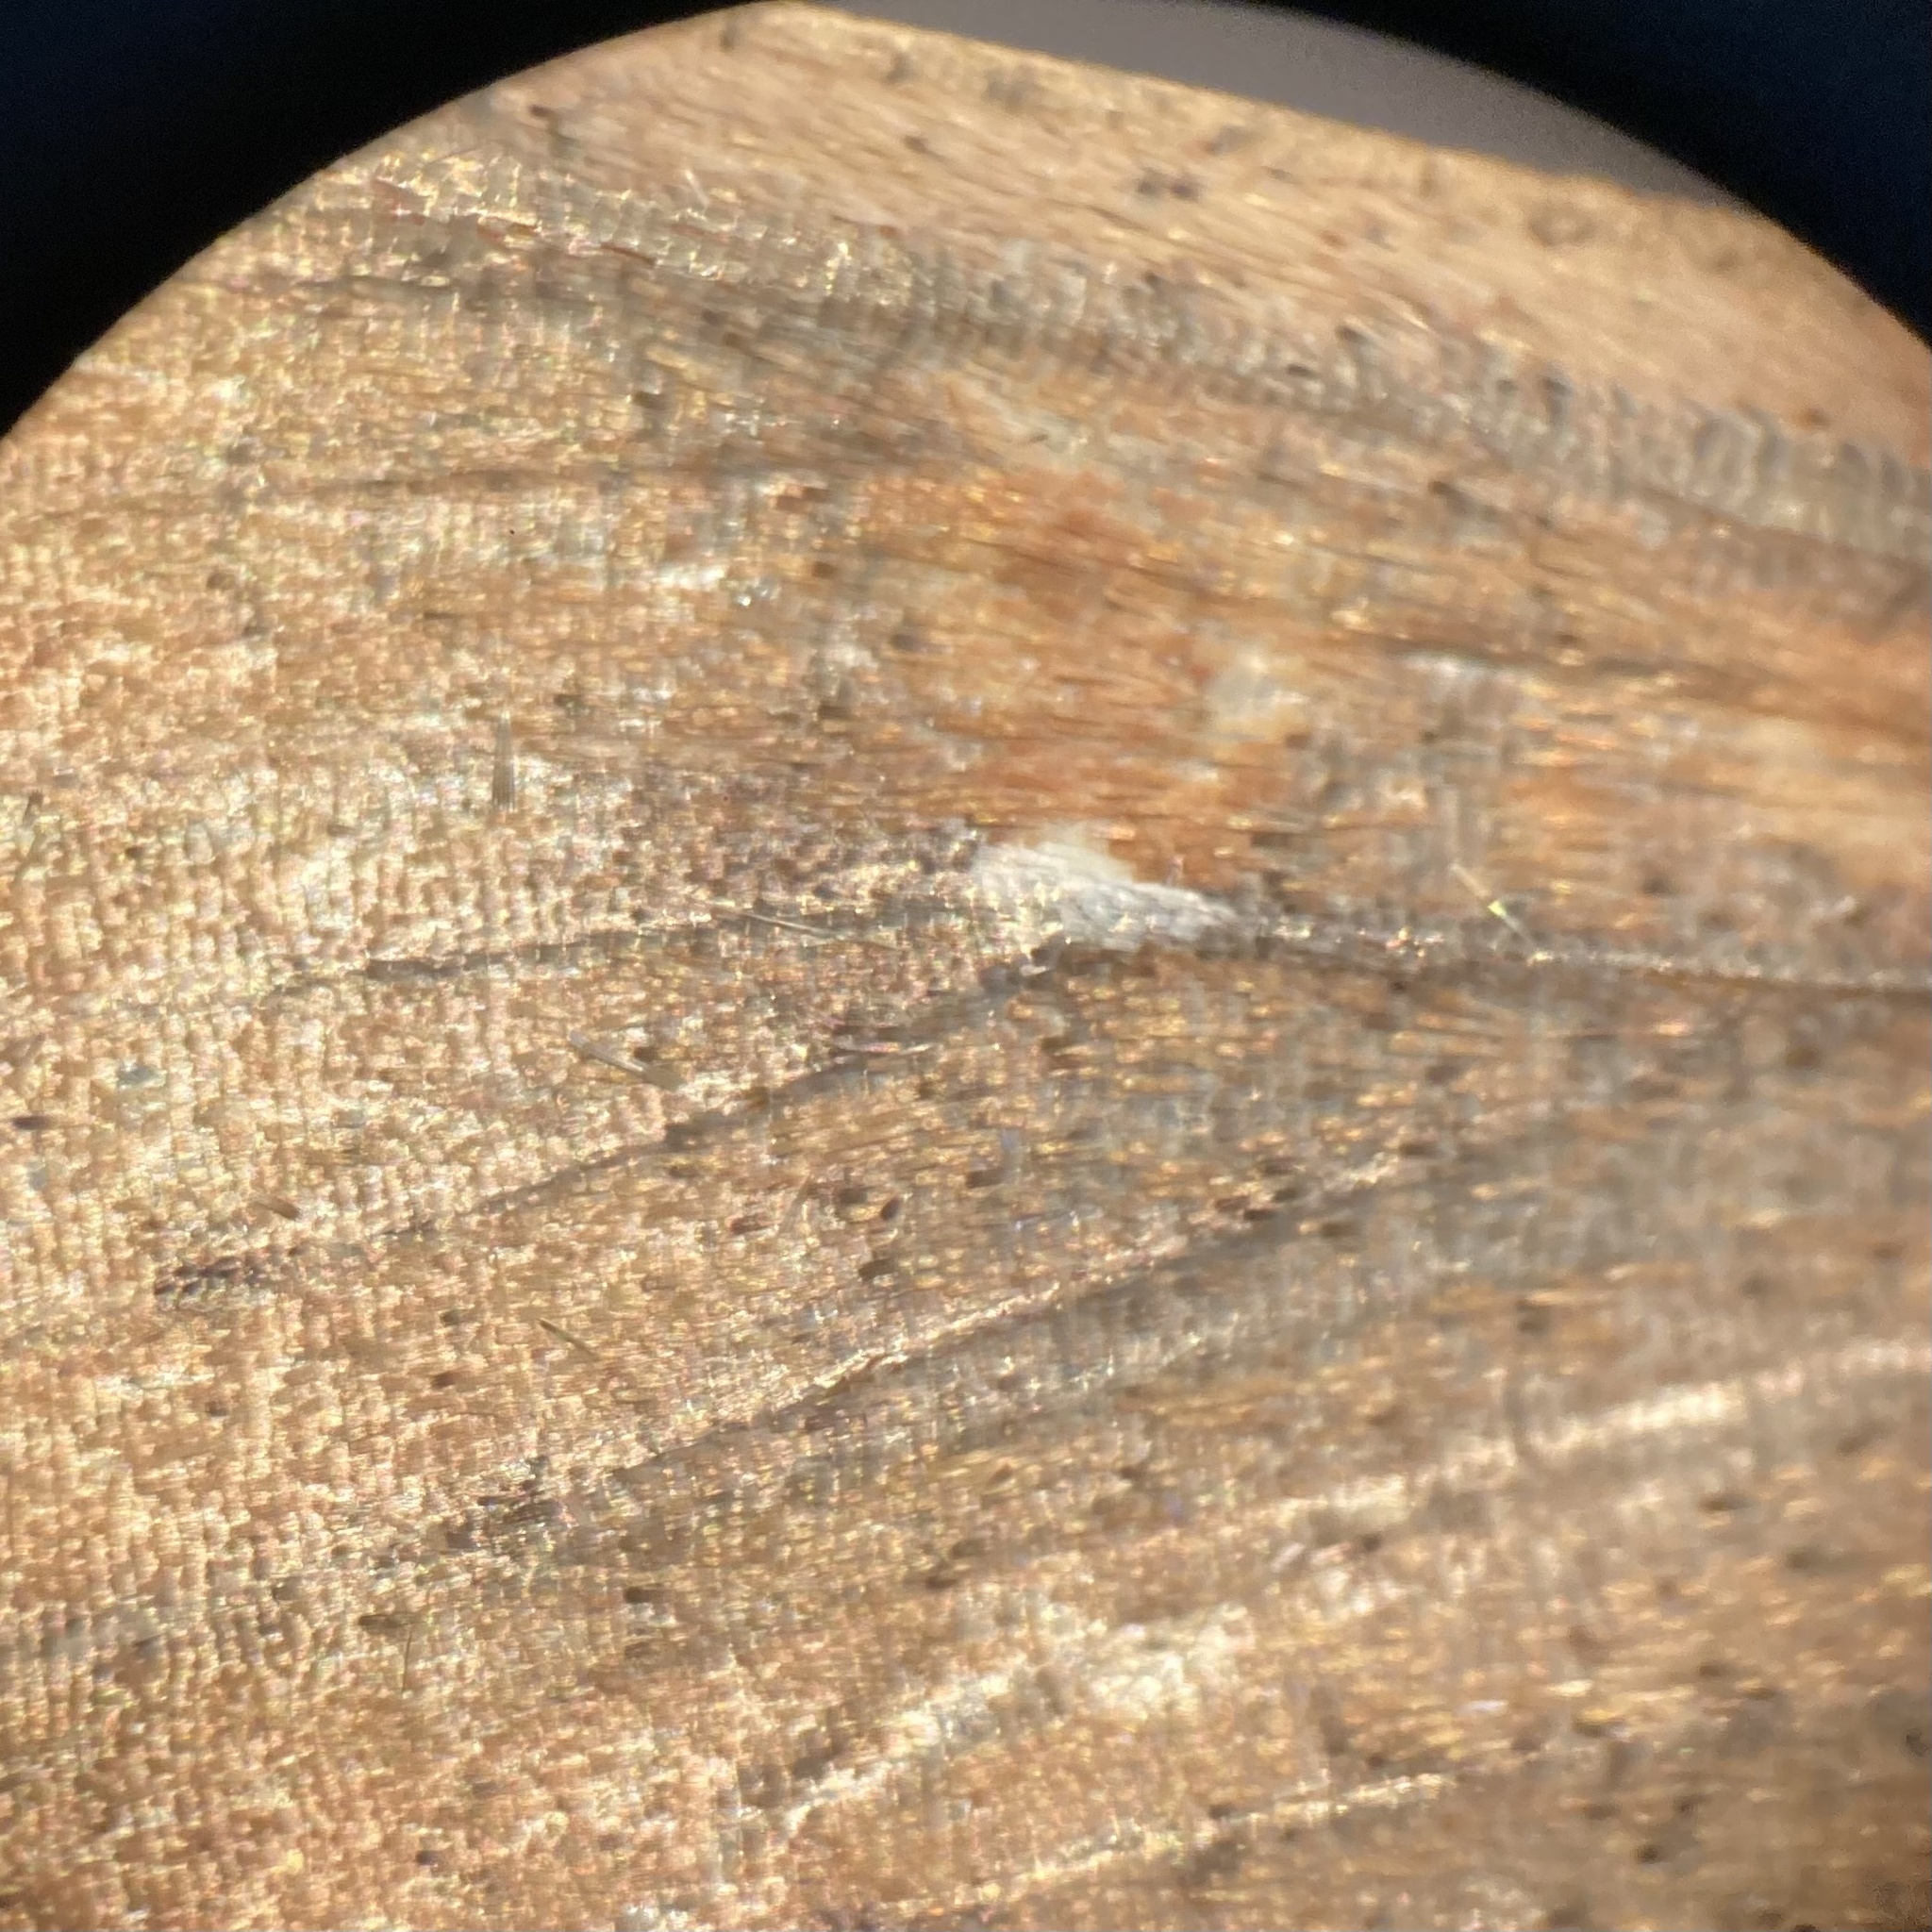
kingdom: Animalia
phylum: Arthropoda
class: Insecta
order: Lepidoptera
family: Noctuidae
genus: Mythimna
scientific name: Mythimna unipuncta
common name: White-speck
